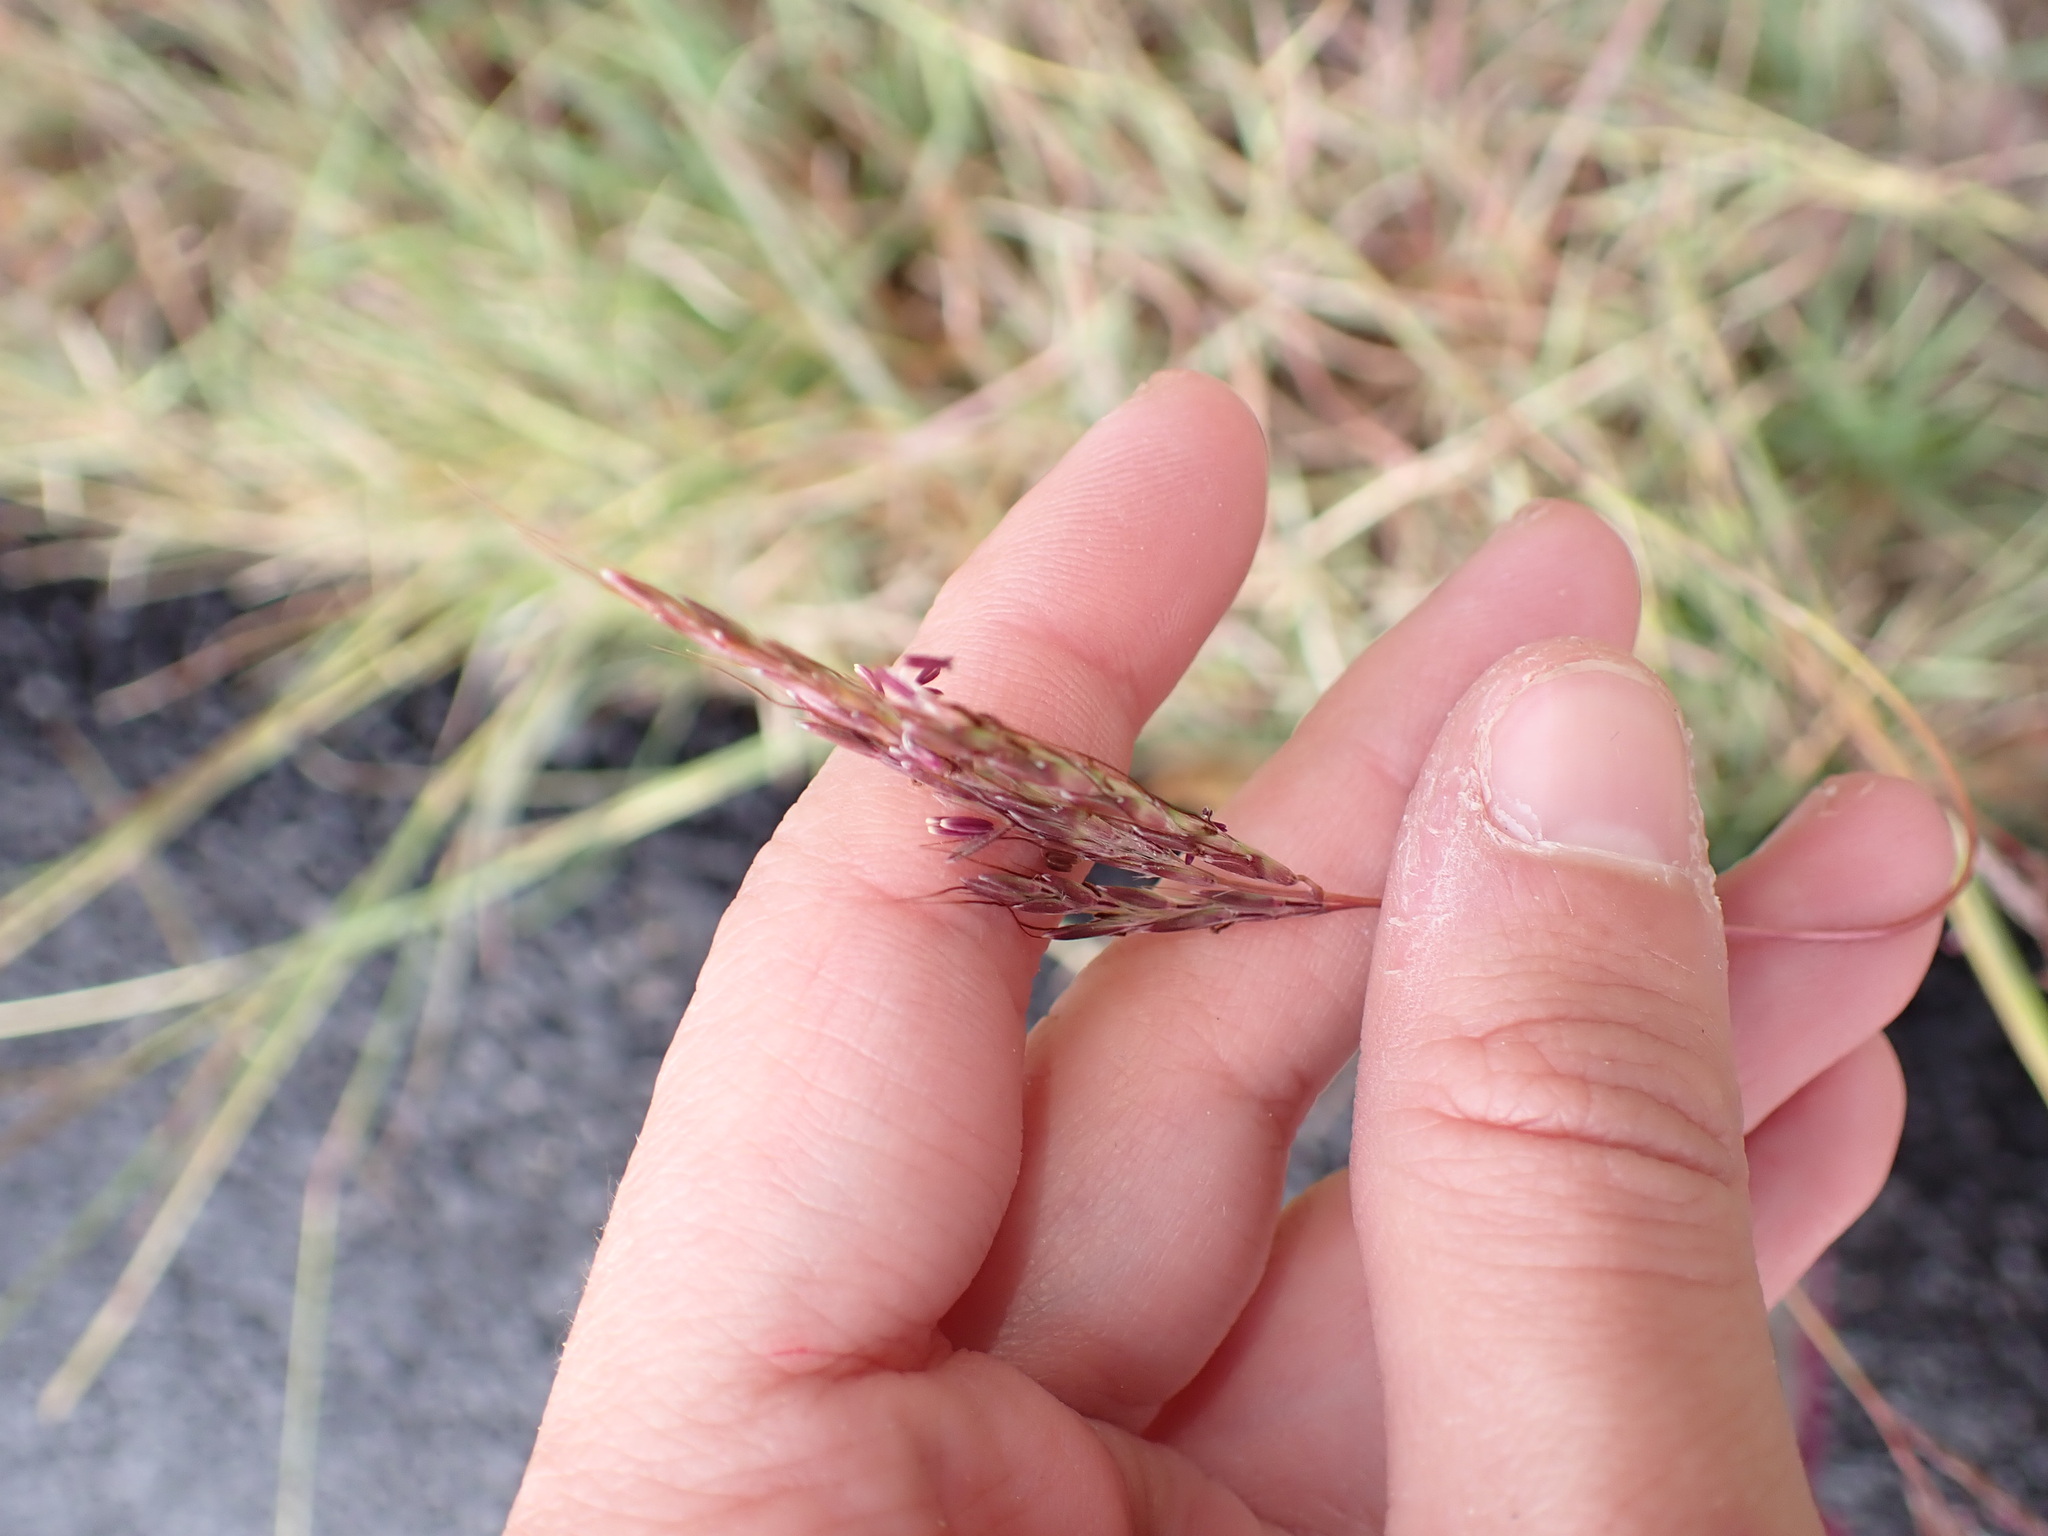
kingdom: Plantae
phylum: Tracheophyta
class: Liliopsida
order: Poales
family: Poaceae
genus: Bothriochloa
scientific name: Bothriochloa ischaemum
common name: Yellow bluestem
